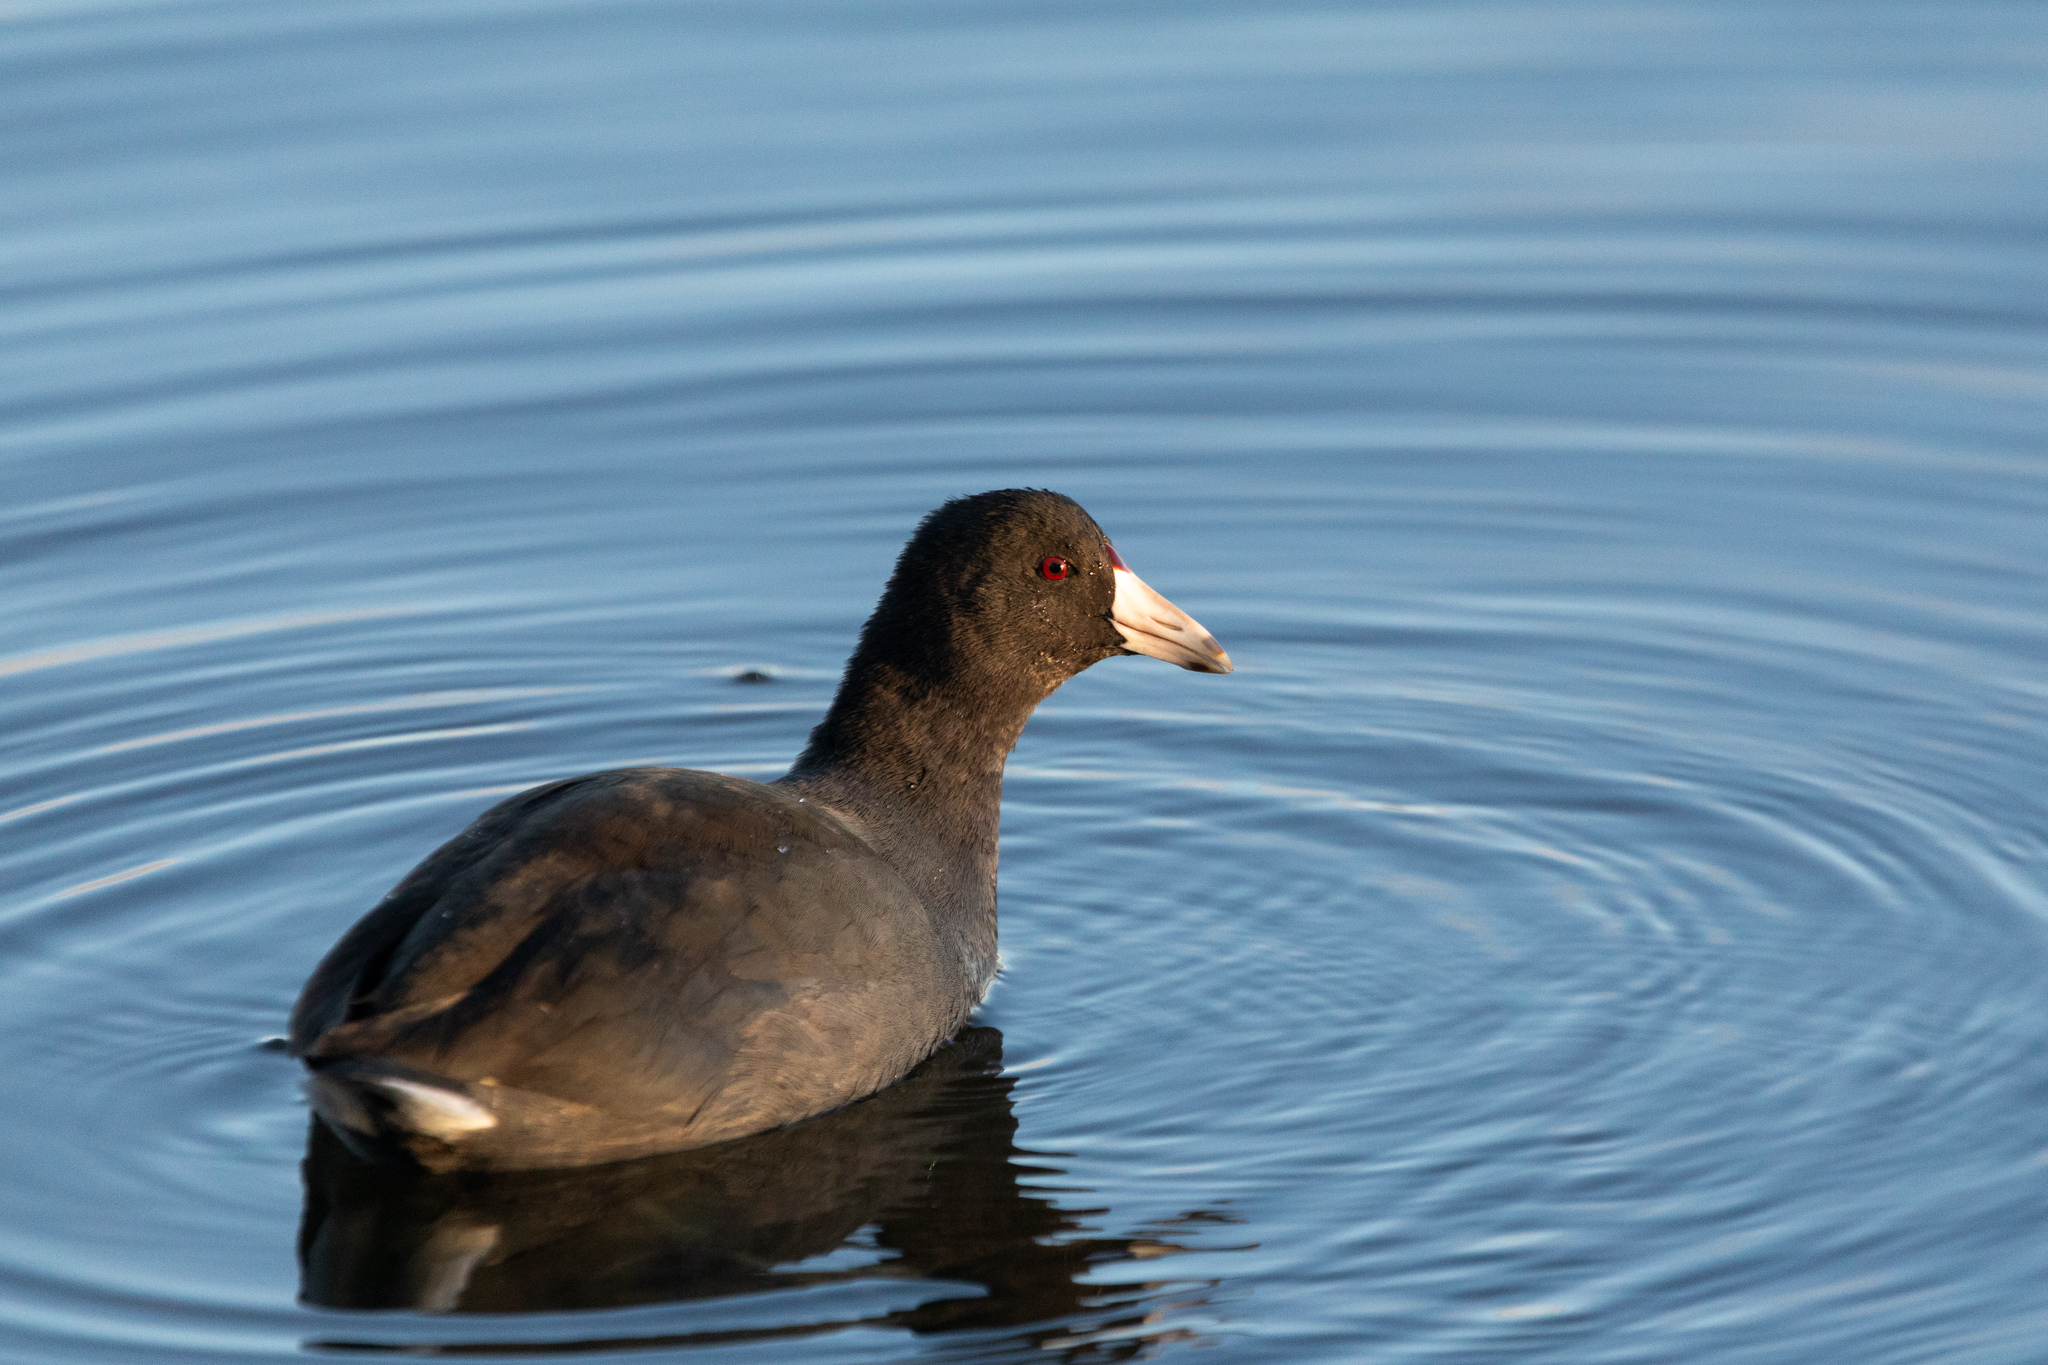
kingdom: Animalia
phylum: Chordata
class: Aves
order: Gruiformes
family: Rallidae
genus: Fulica
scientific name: Fulica americana
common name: American coot
